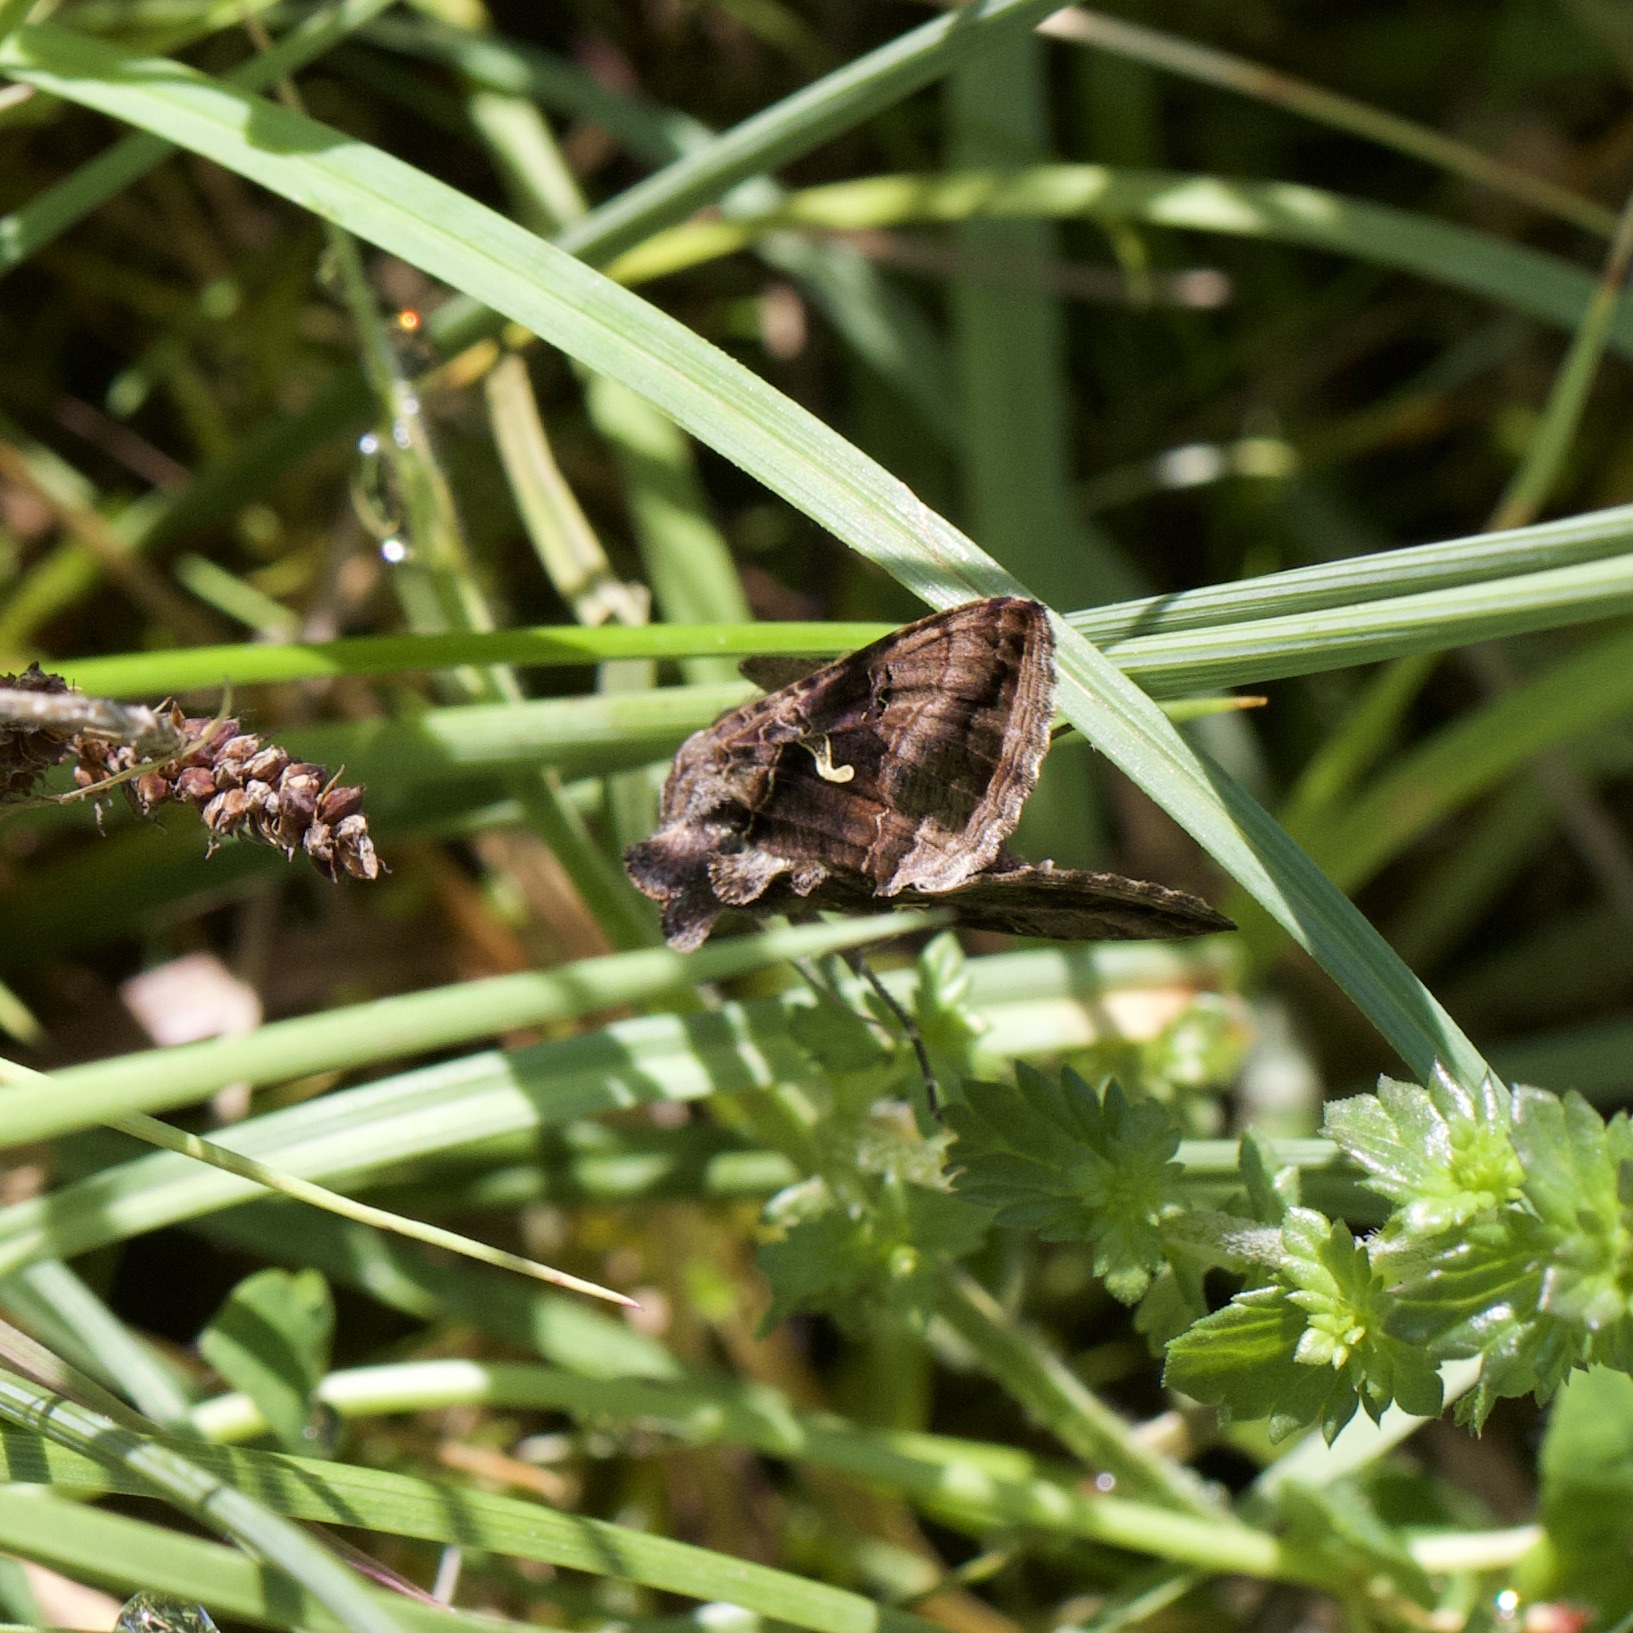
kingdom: Animalia
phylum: Arthropoda
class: Insecta
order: Lepidoptera
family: Noctuidae
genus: Autographa
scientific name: Autographa gamma
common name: Silver y
